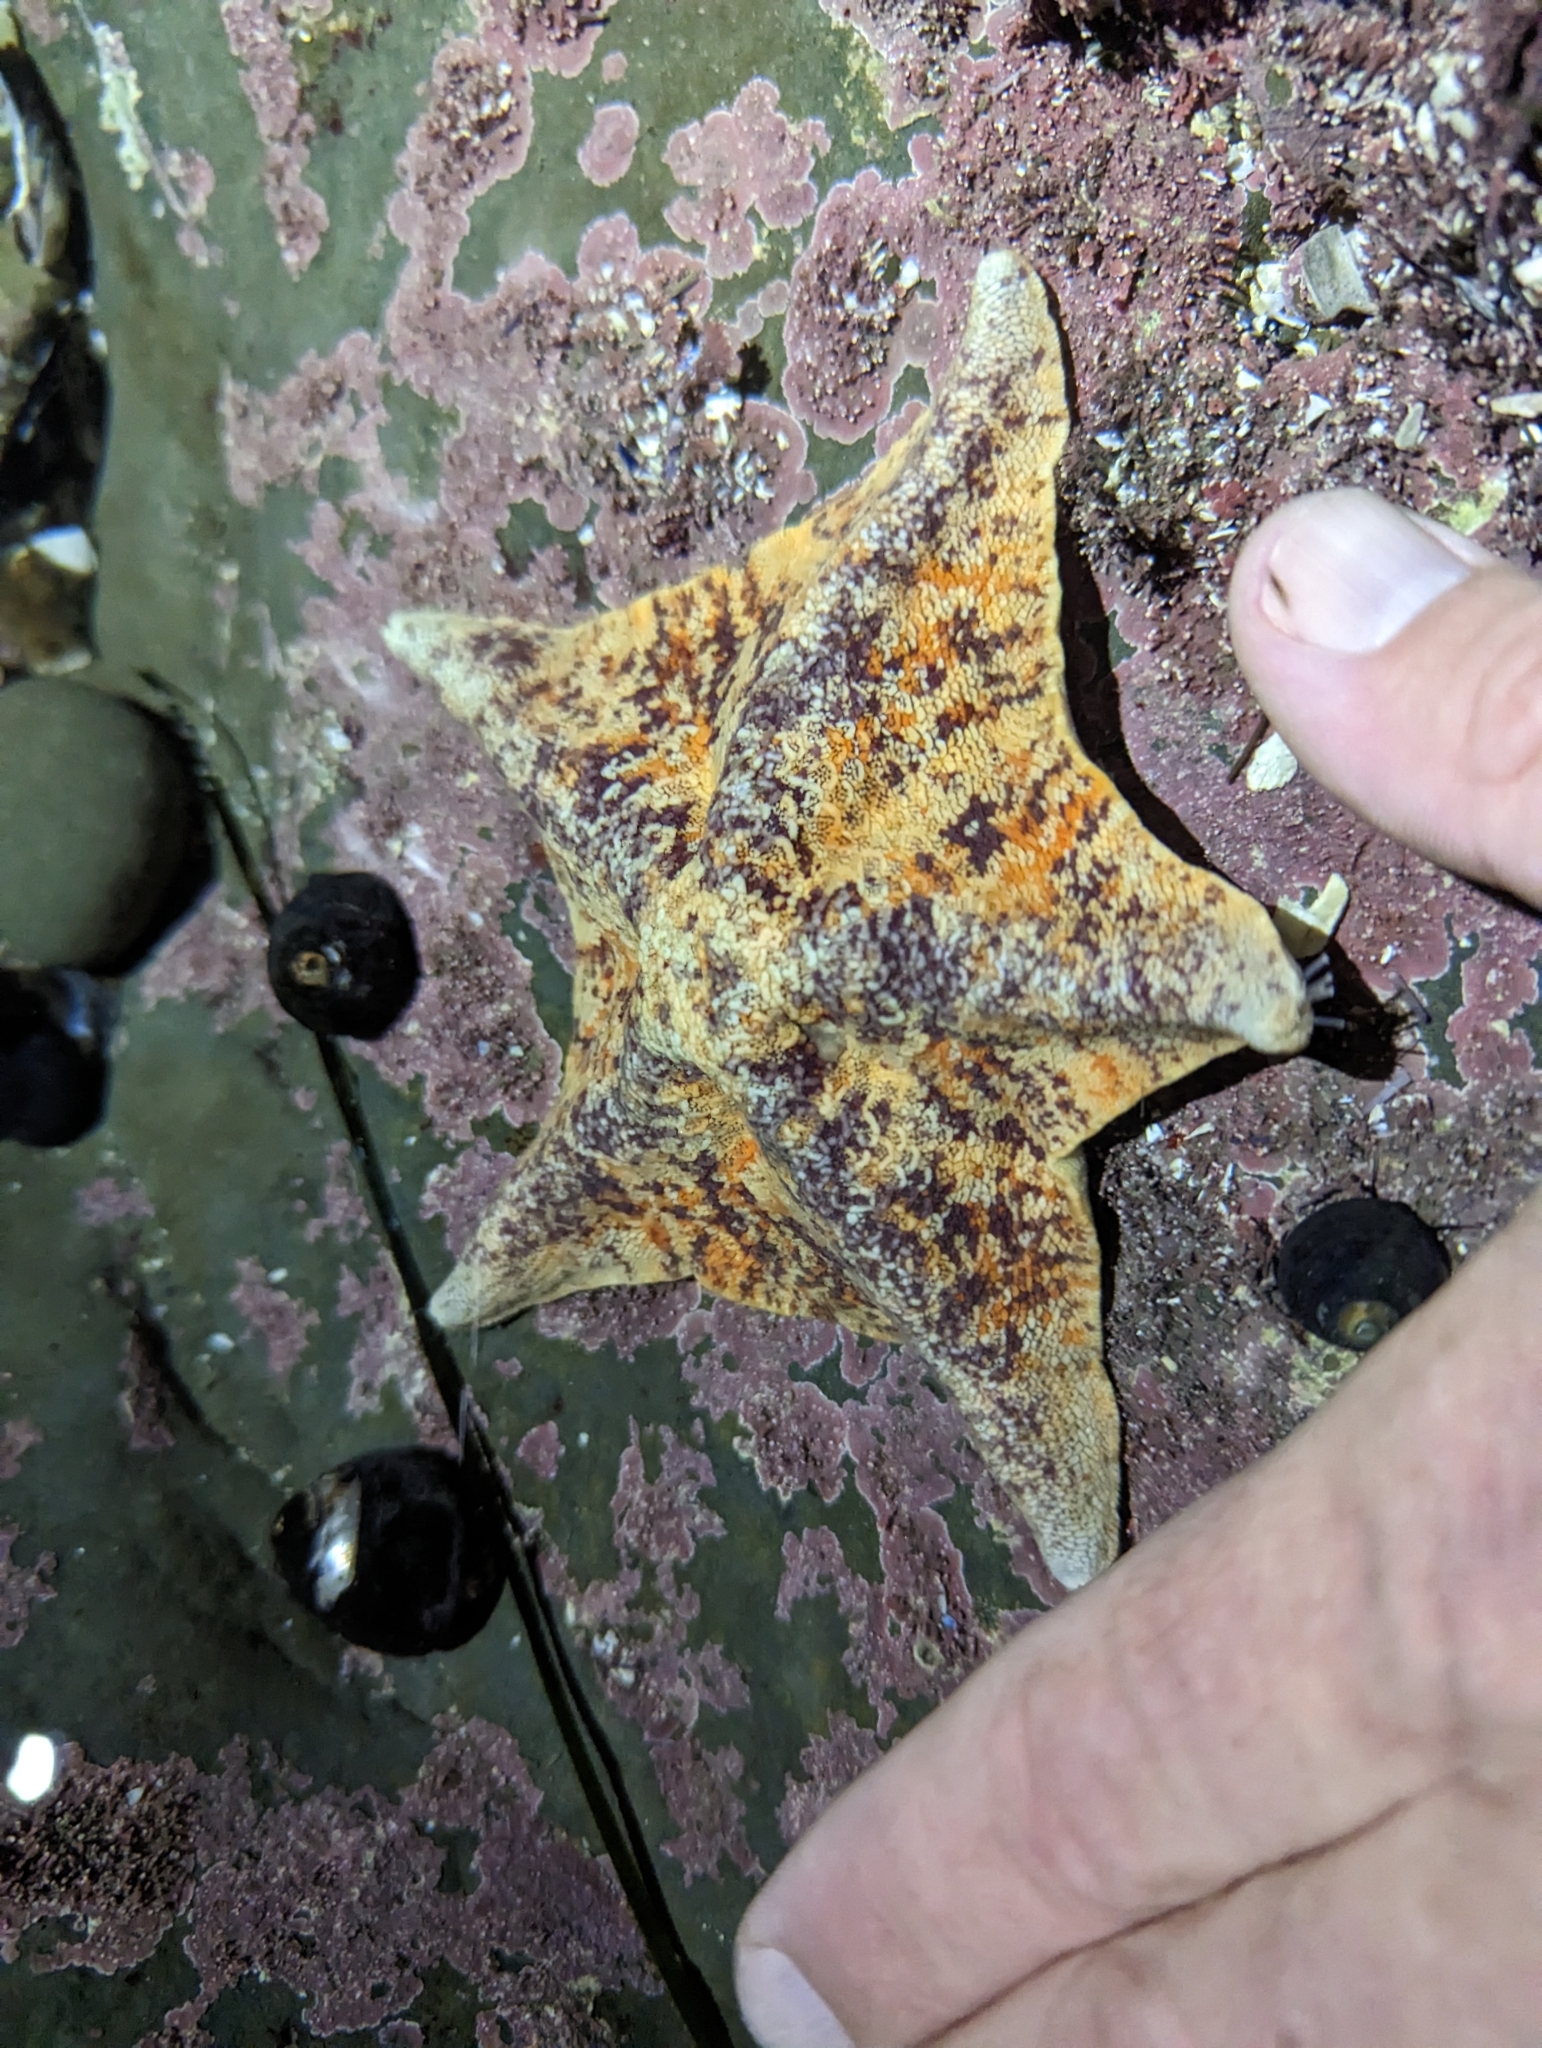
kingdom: Animalia
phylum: Echinodermata
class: Asteroidea
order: Valvatida
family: Asterinidae
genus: Patiria
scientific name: Patiria miniata
